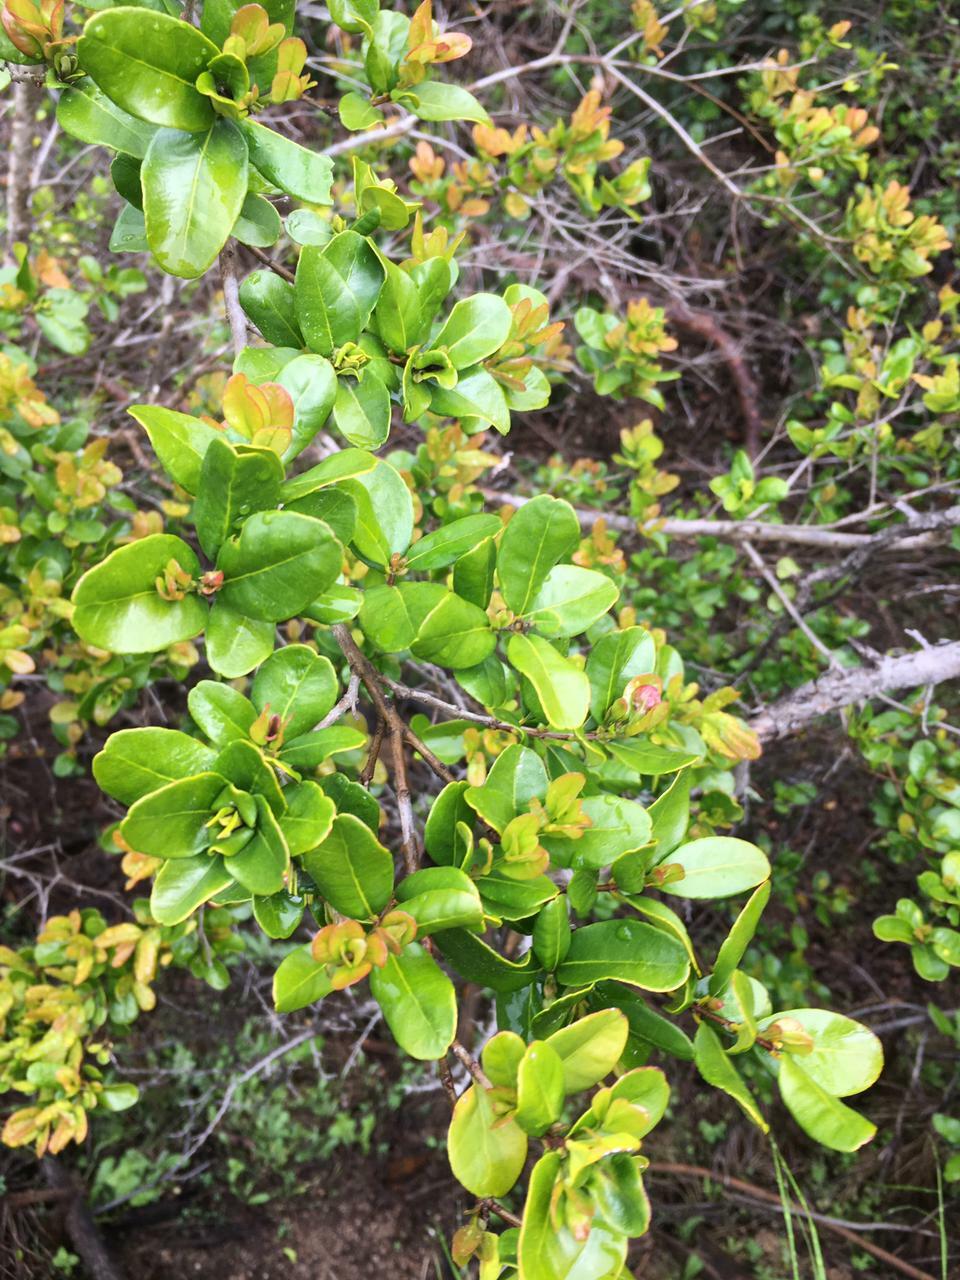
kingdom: Plantae
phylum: Tracheophyta
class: Magnoliopsida
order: Myrtales
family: Myrtaceae
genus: Blepharocalyx
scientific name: Blepharocalyx cruckshanksii
